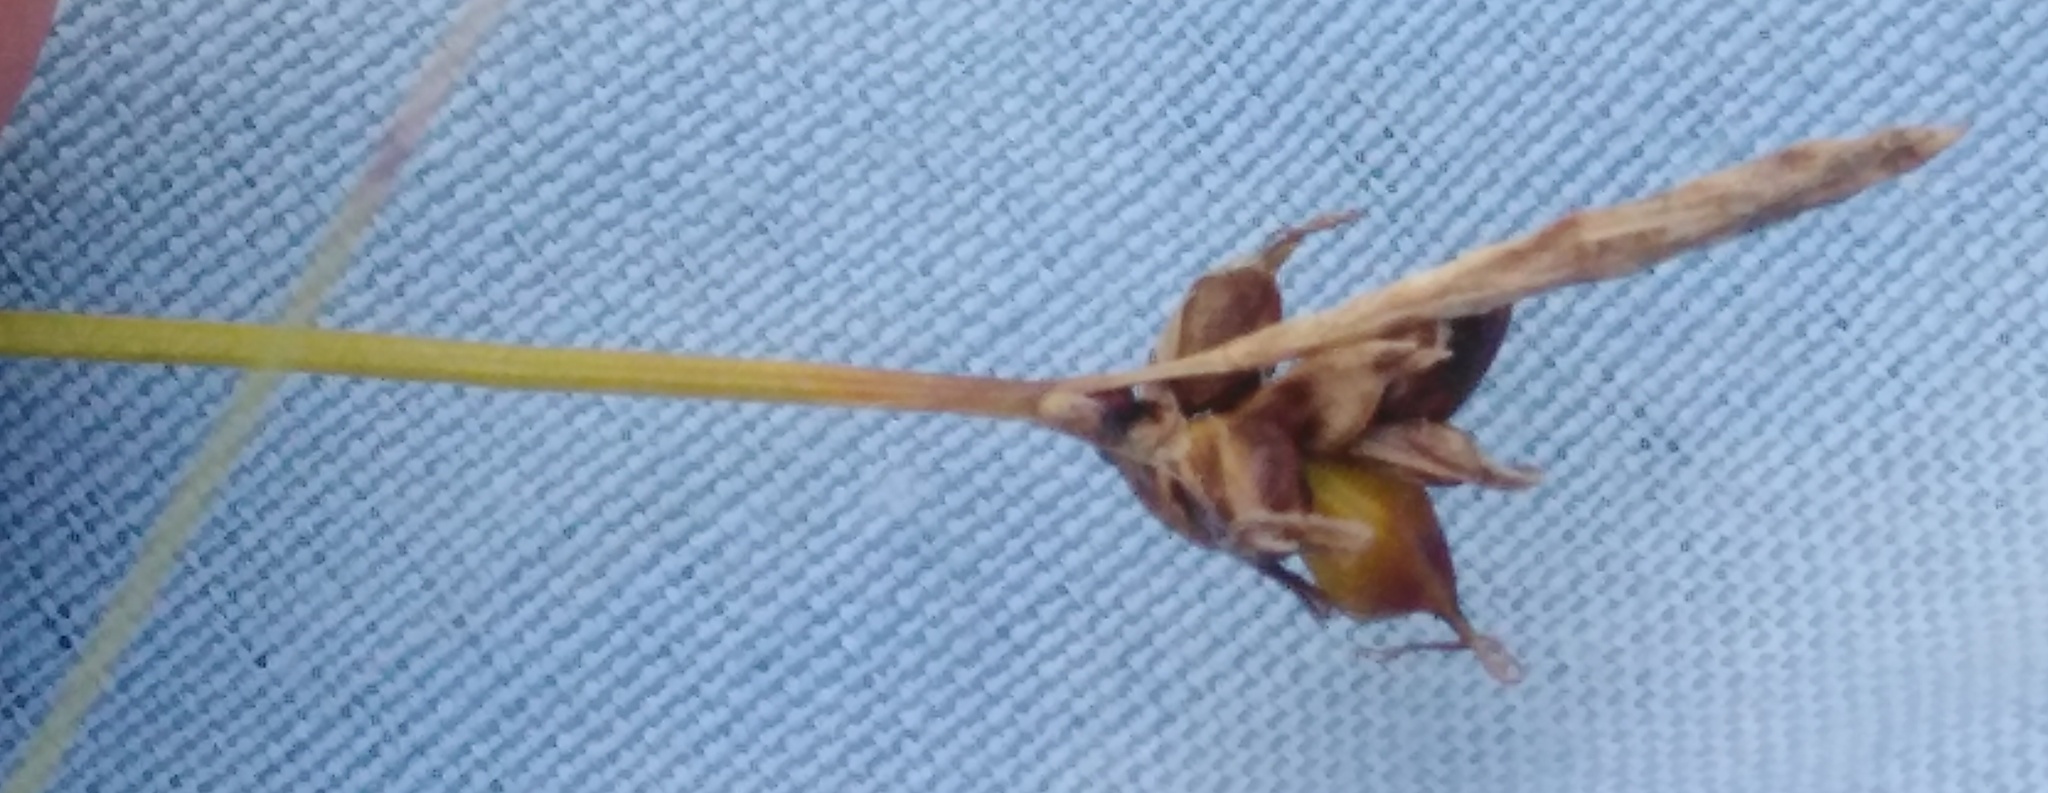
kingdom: Plantae
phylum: Tracheophyta
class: Liliopsida
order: Poales
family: Cyperaceae
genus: Carex
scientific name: Carex supina
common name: Lying-back sedge
